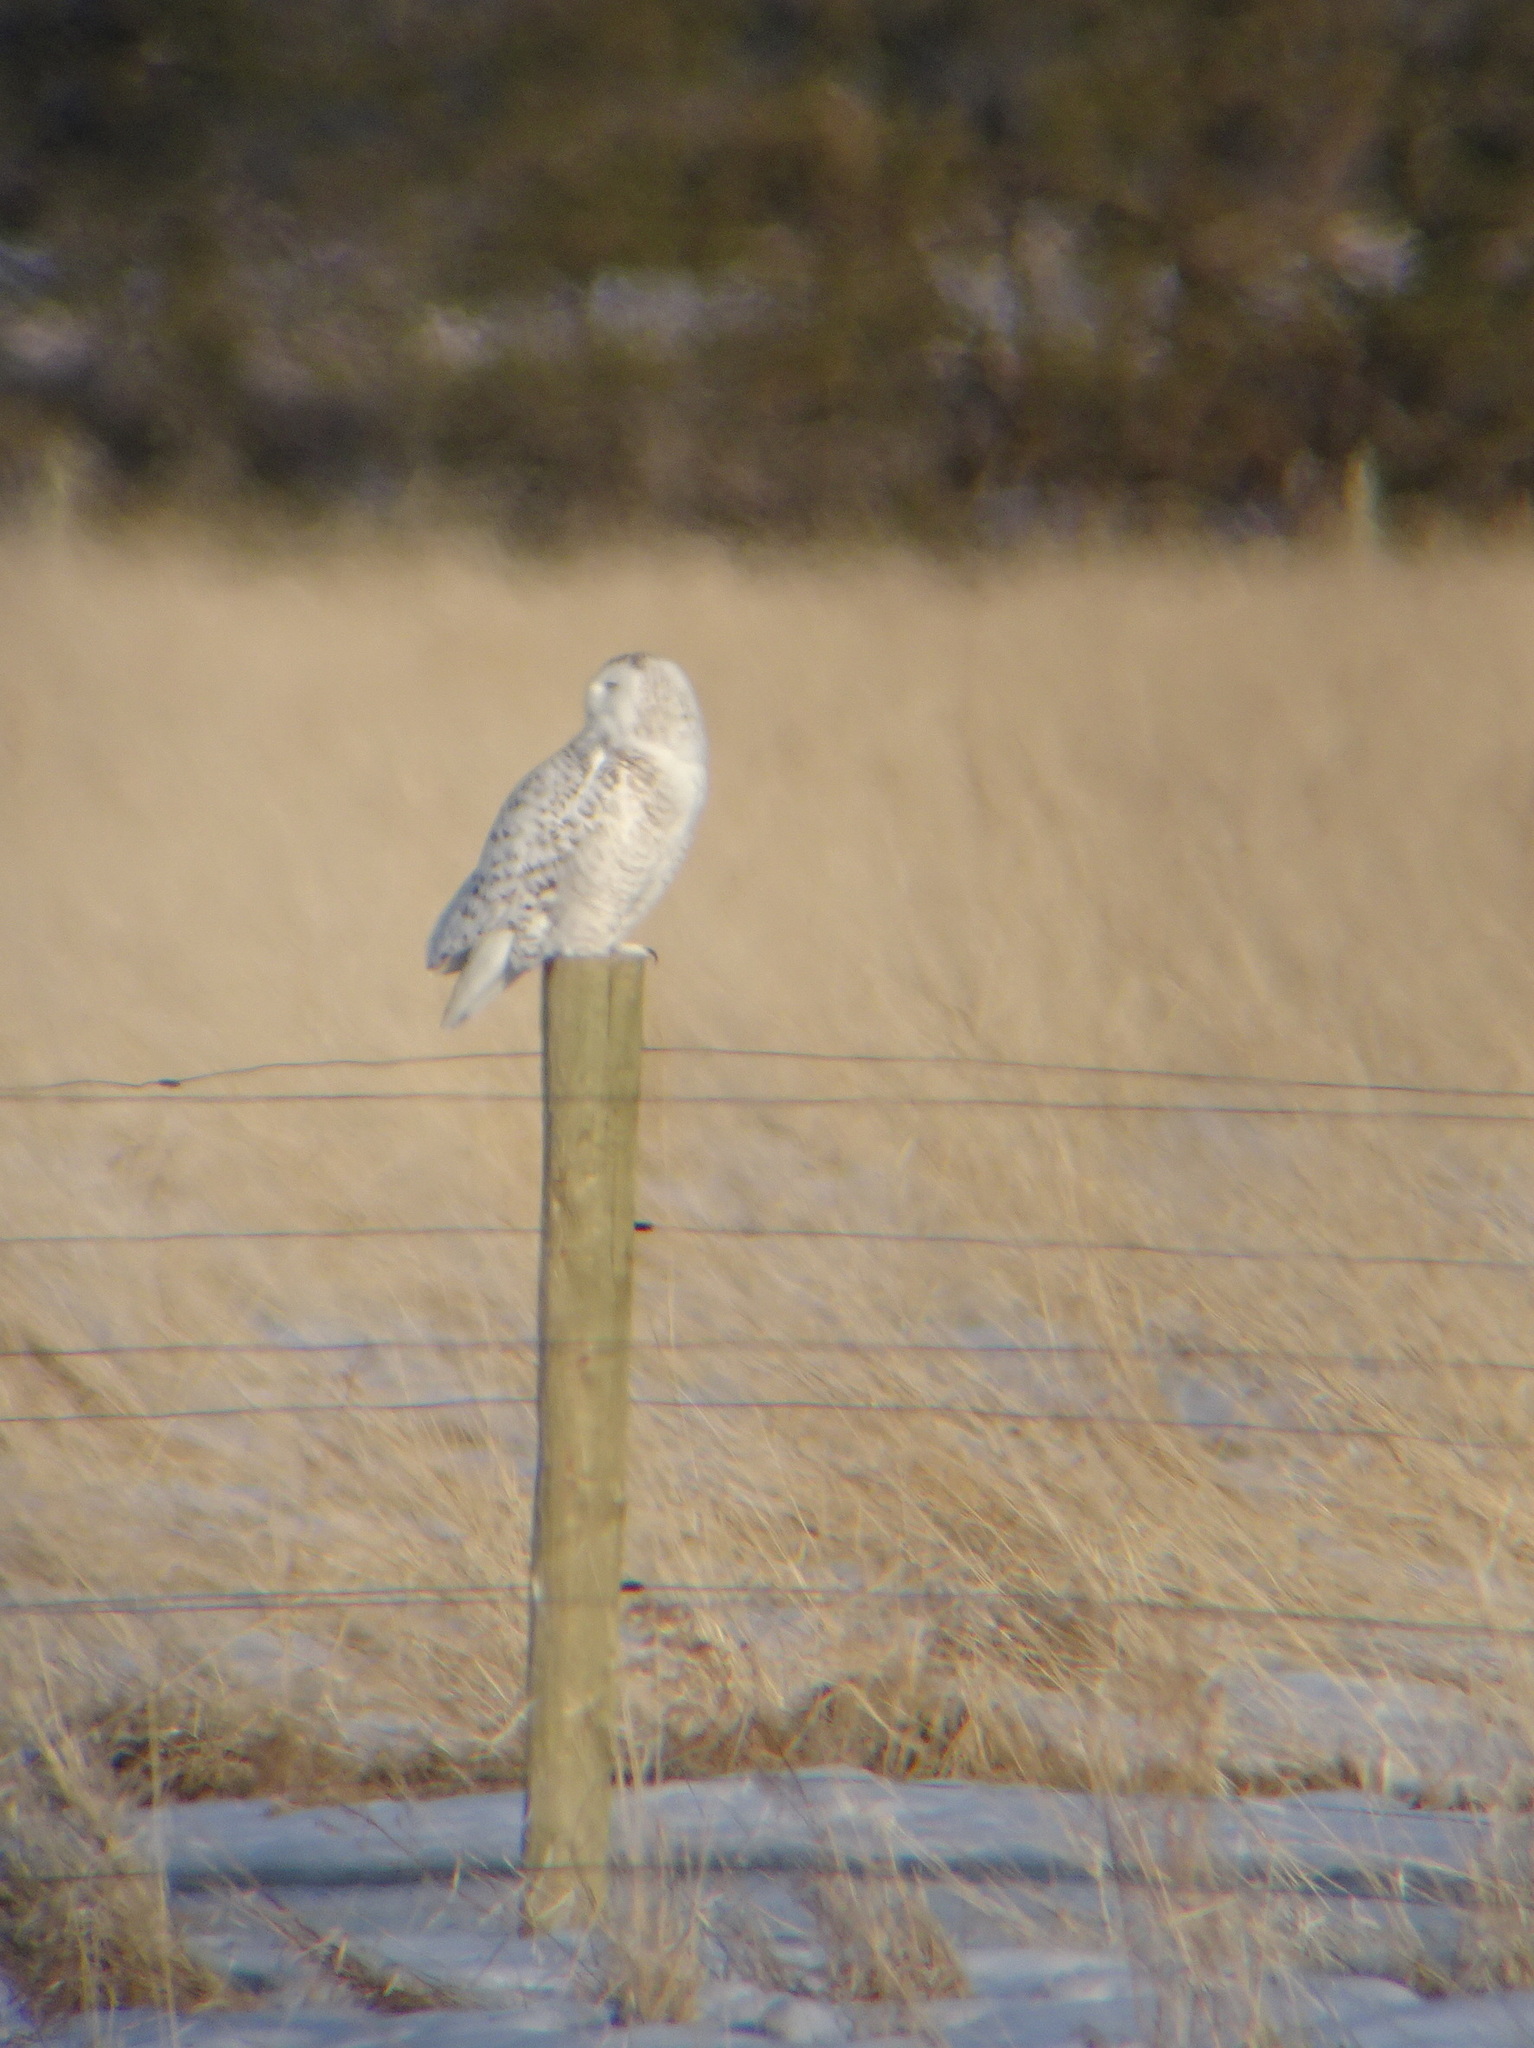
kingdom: Animalia
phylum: Chordata
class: Aves
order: Strigiformes
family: Strigidae
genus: Bubo
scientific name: Bubo scandiacus
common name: Snowy owl
